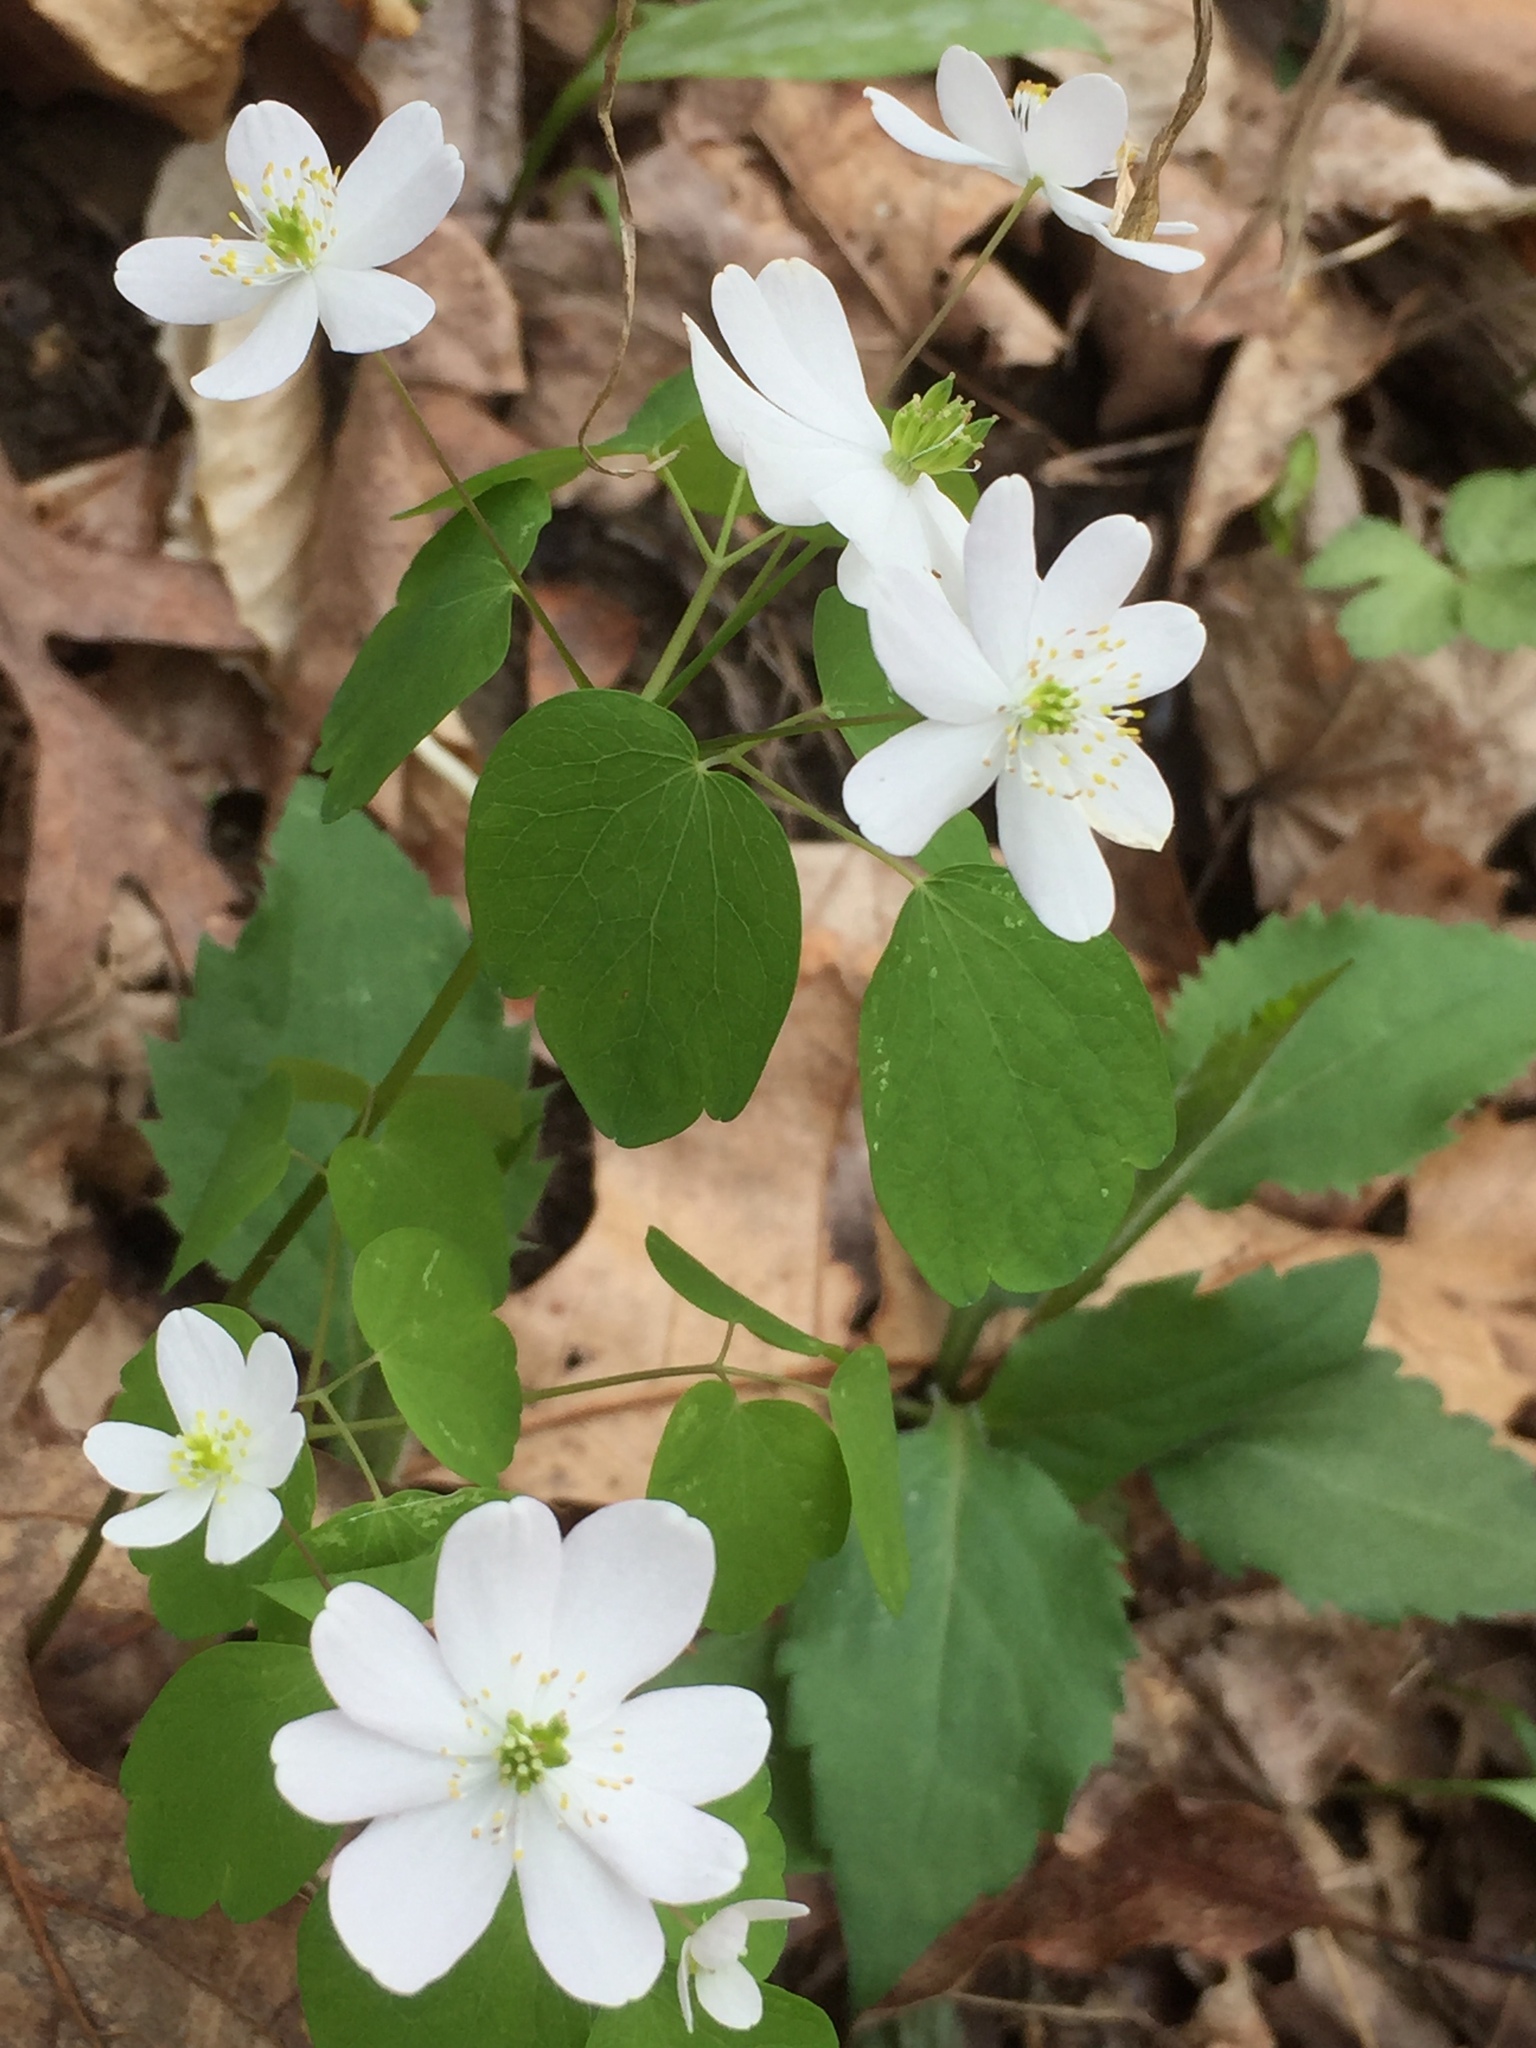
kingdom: Plantae
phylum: Tracheophyta
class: Magnoliopsida
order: Ranunculales
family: Ranunculaceae
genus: Thalictrum
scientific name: Thalictrum thalictroides
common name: Rue-anemone
